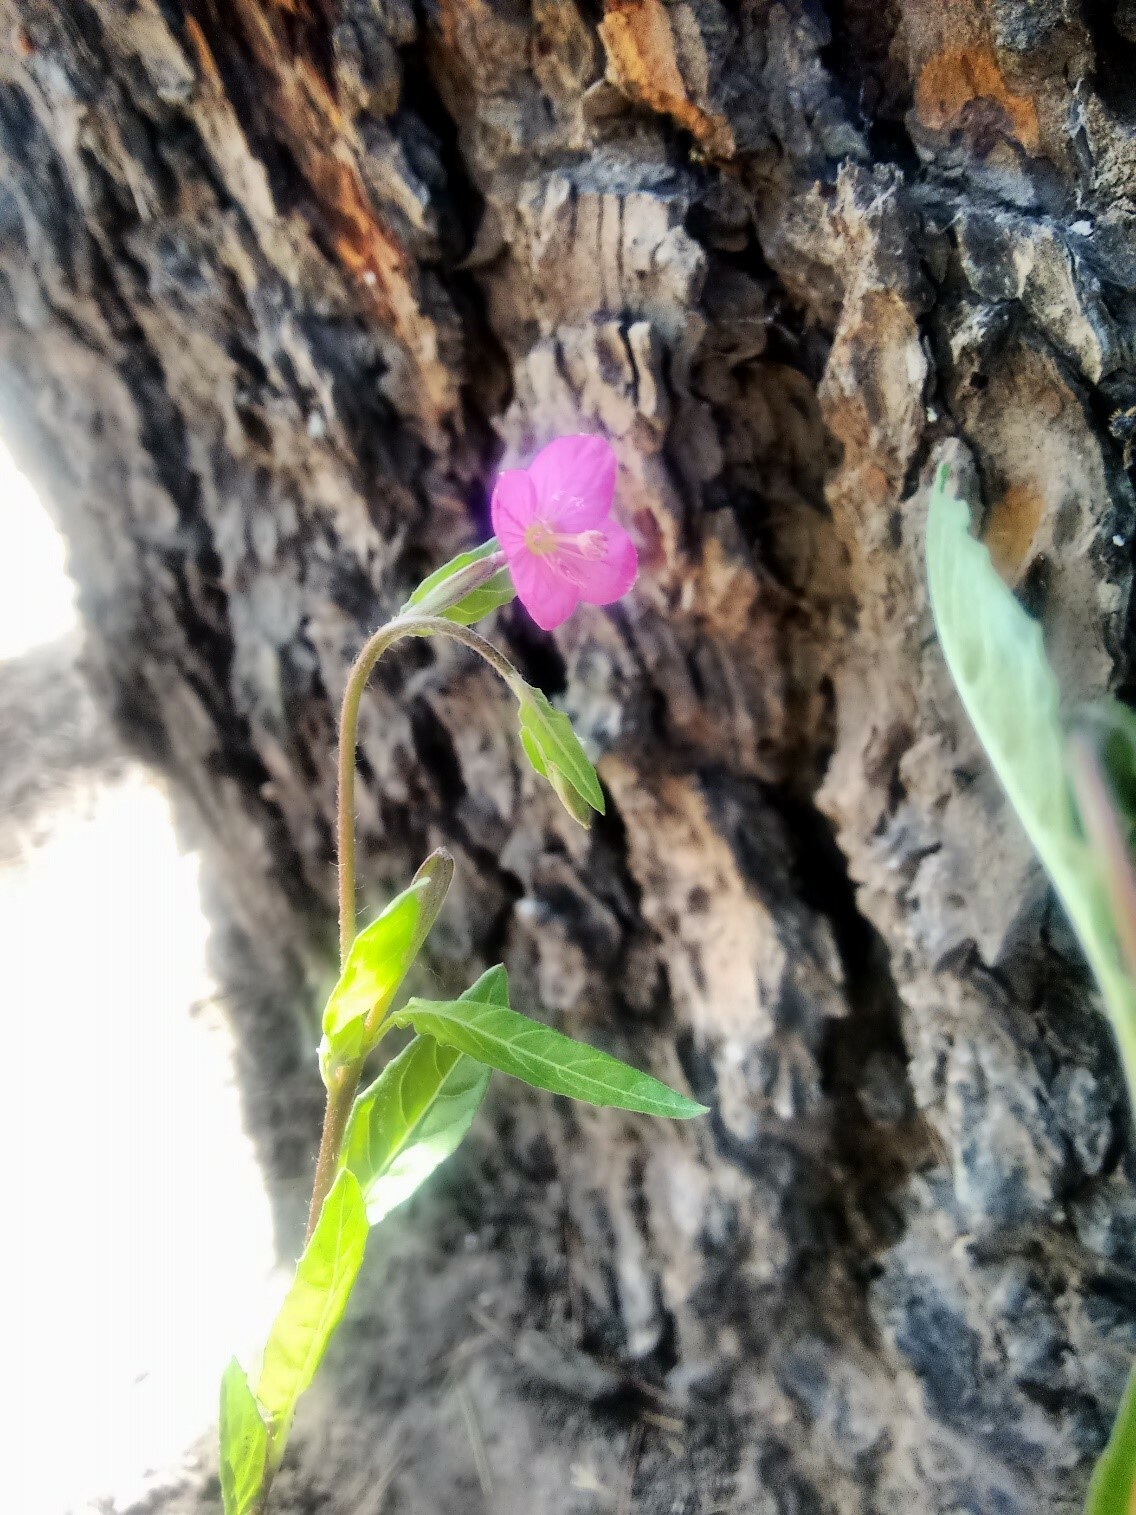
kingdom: Plantae
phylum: Tracheophyta
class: Magnoliopsida
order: Myrtales
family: Onagraceae
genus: Oenothera
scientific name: Oenothera rosea
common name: Rosy evening-primrose
